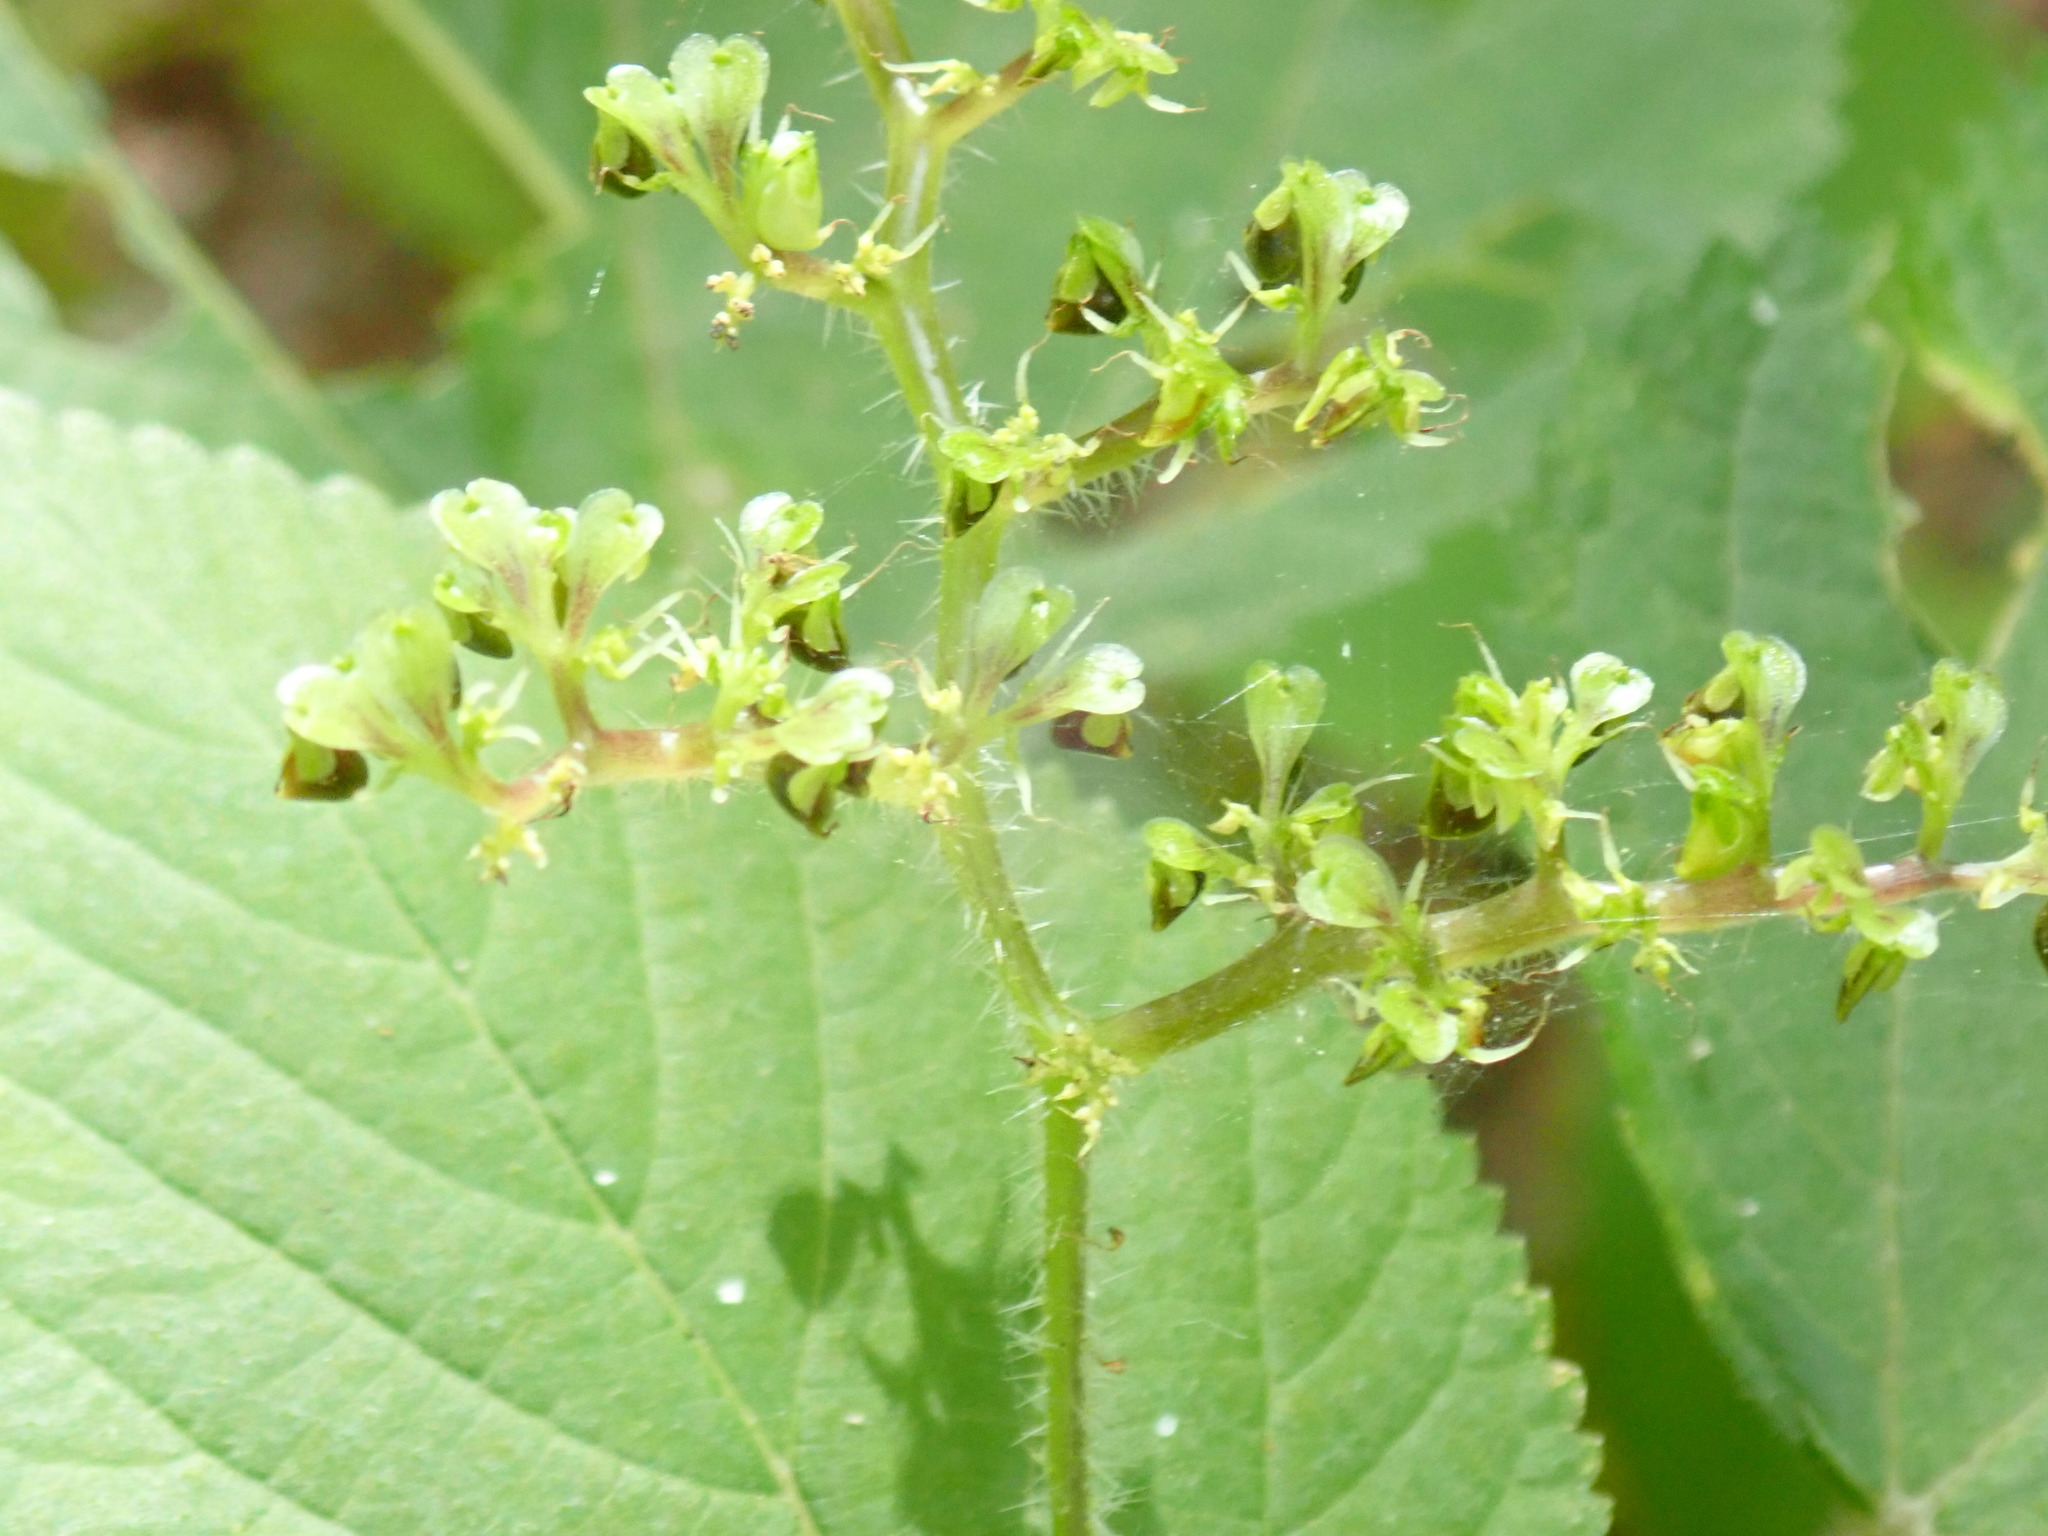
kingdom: Plantae
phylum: Tracheophyta
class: Magnoliopsida
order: Rosales
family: Urticaceae
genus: Laportea
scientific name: Laportea canadensis
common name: Canada nettle
